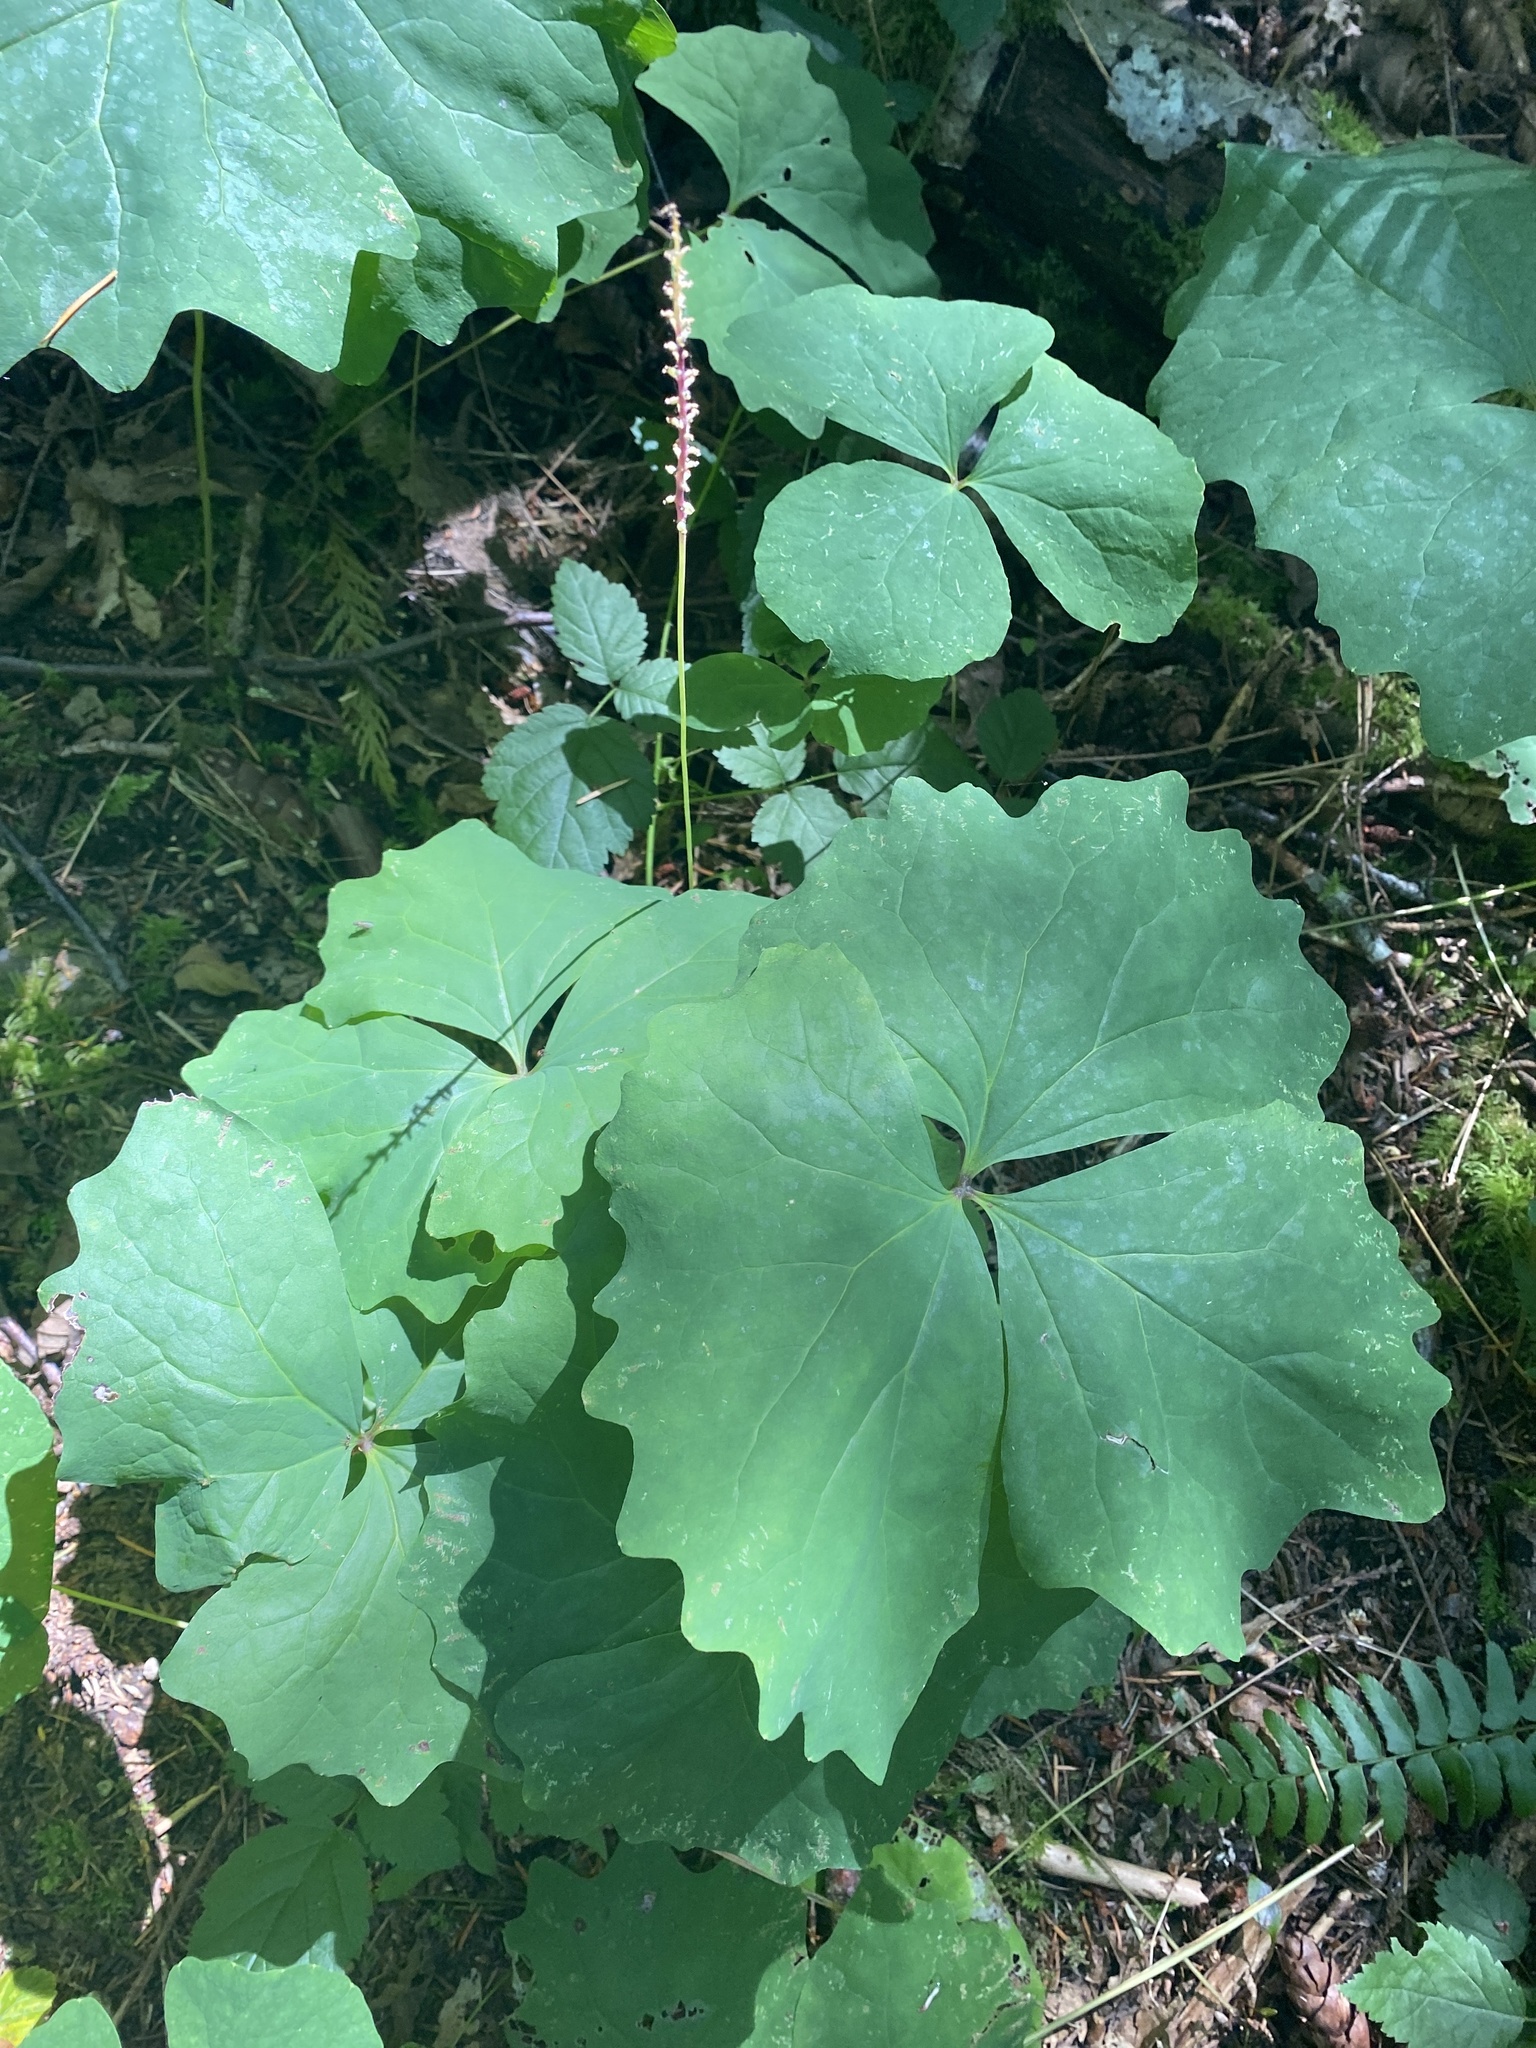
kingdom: Plantae
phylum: Tracheophyta
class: Magnoliopsida
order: Ranunculales
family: Berberidaceae
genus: Achlys
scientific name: Achlys triphylla
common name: Vanilla-leaf
